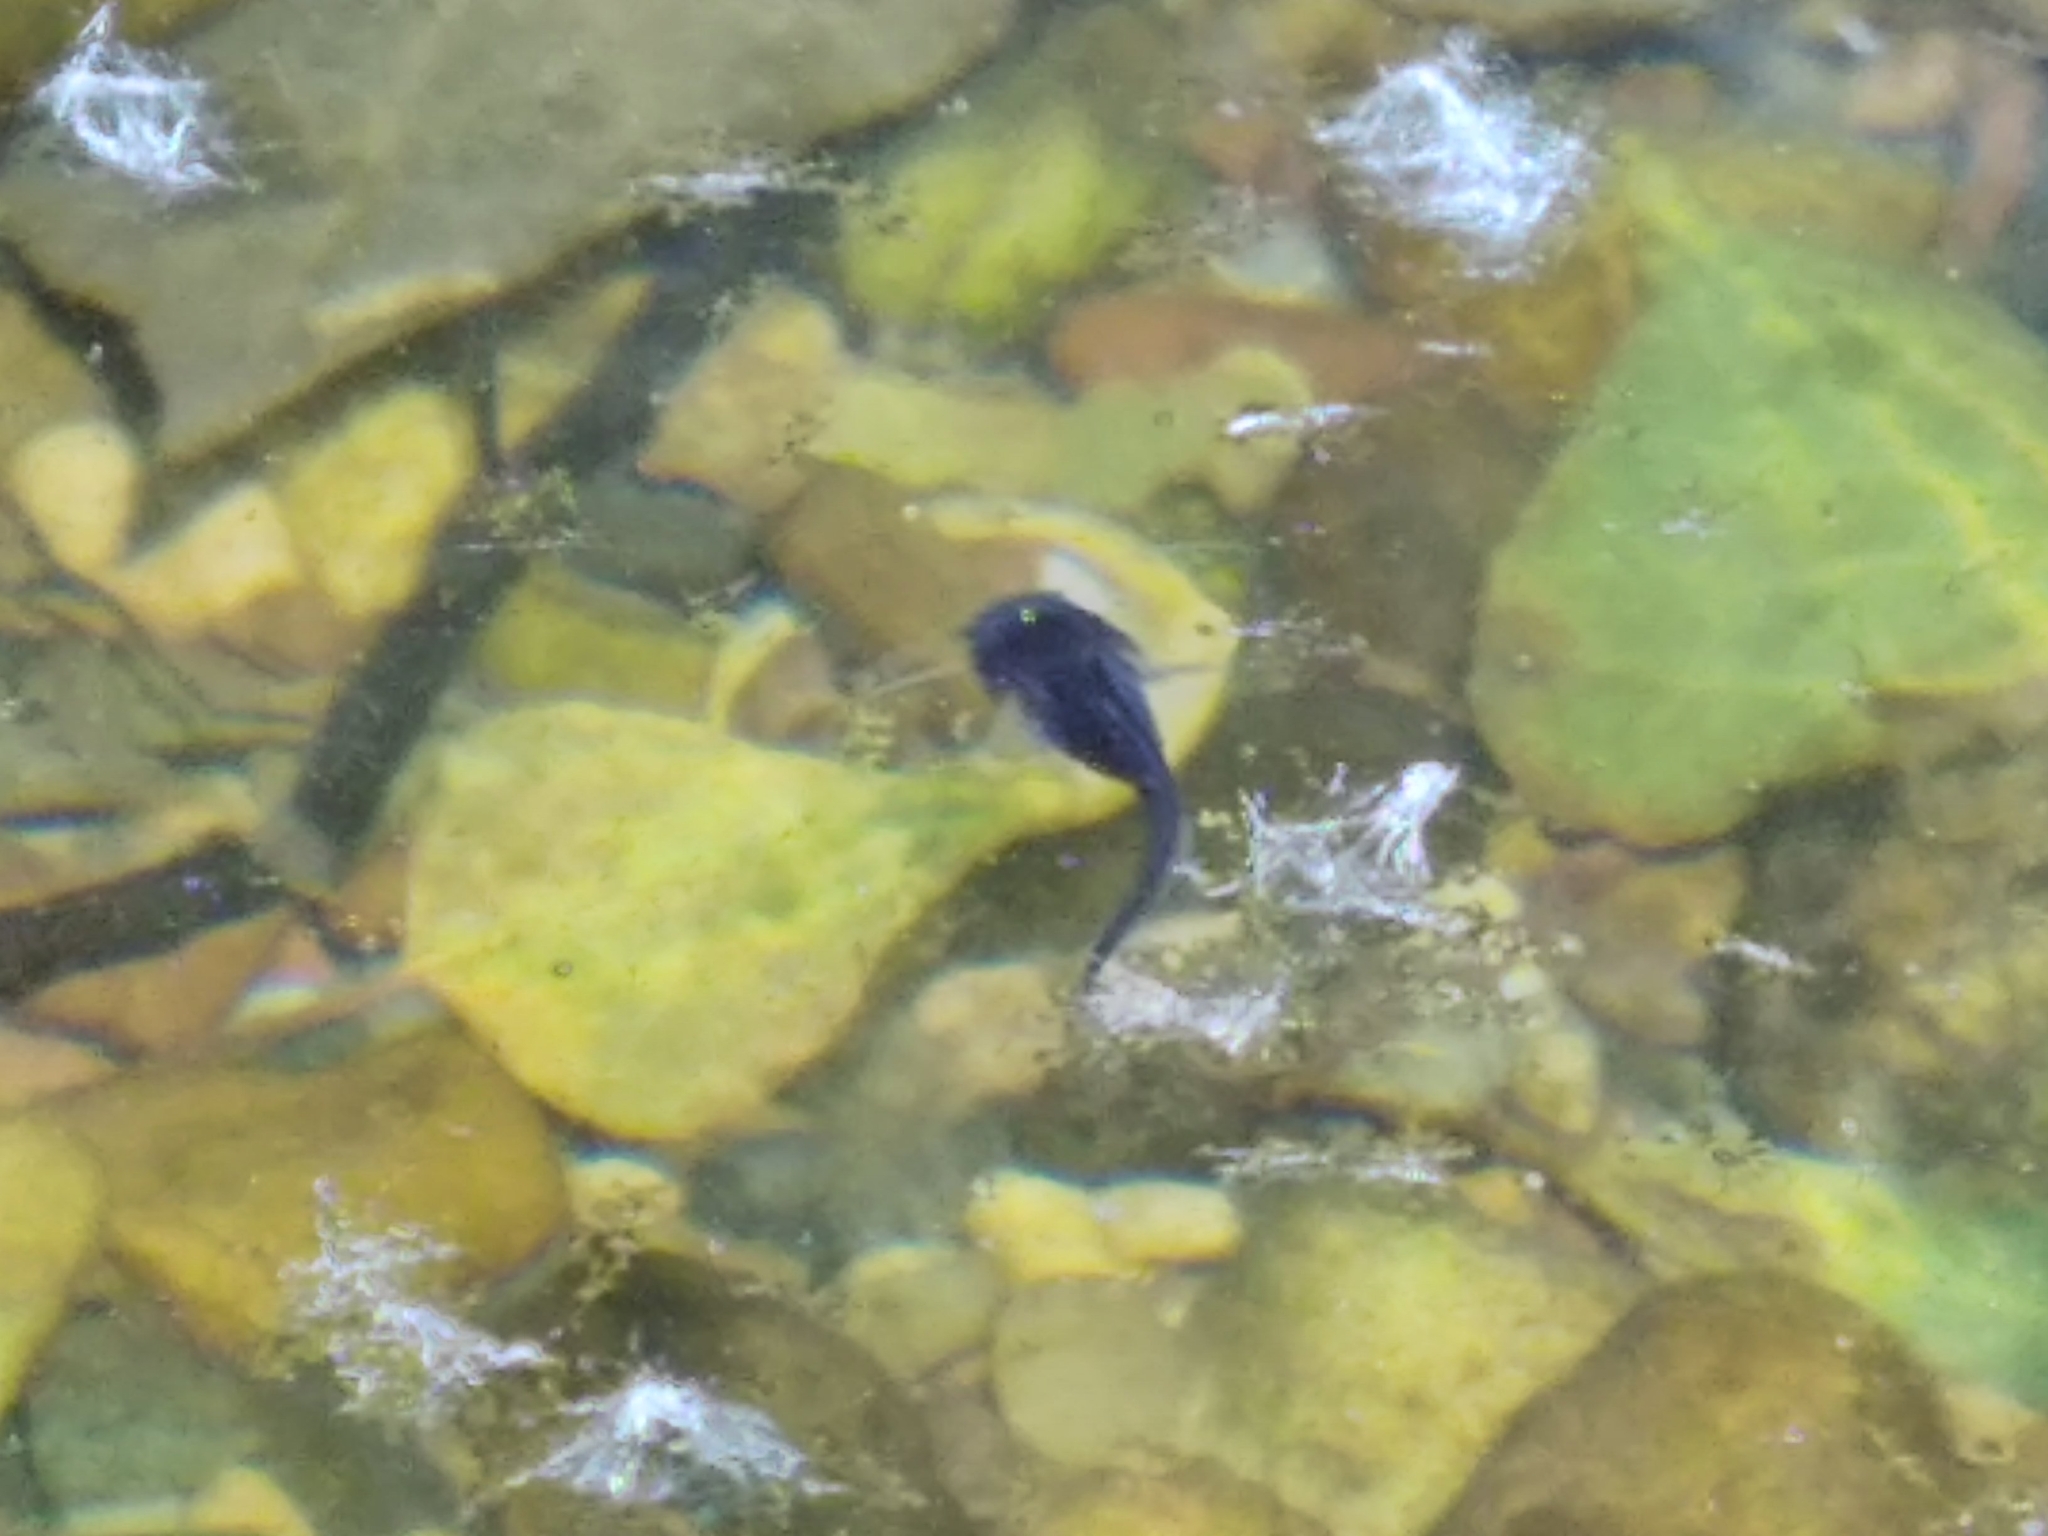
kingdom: Animalia
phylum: Chordata
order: Siluriformes
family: Siluridae
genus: Silurus
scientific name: Silurus glanis
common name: Wels
